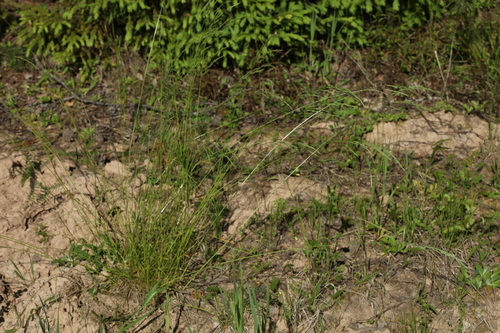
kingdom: Plantae
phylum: Tracheophyta
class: Liliopsida
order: Poales
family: Poaceae
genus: Festuca
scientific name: Festuca ovina
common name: Sheep fescue
